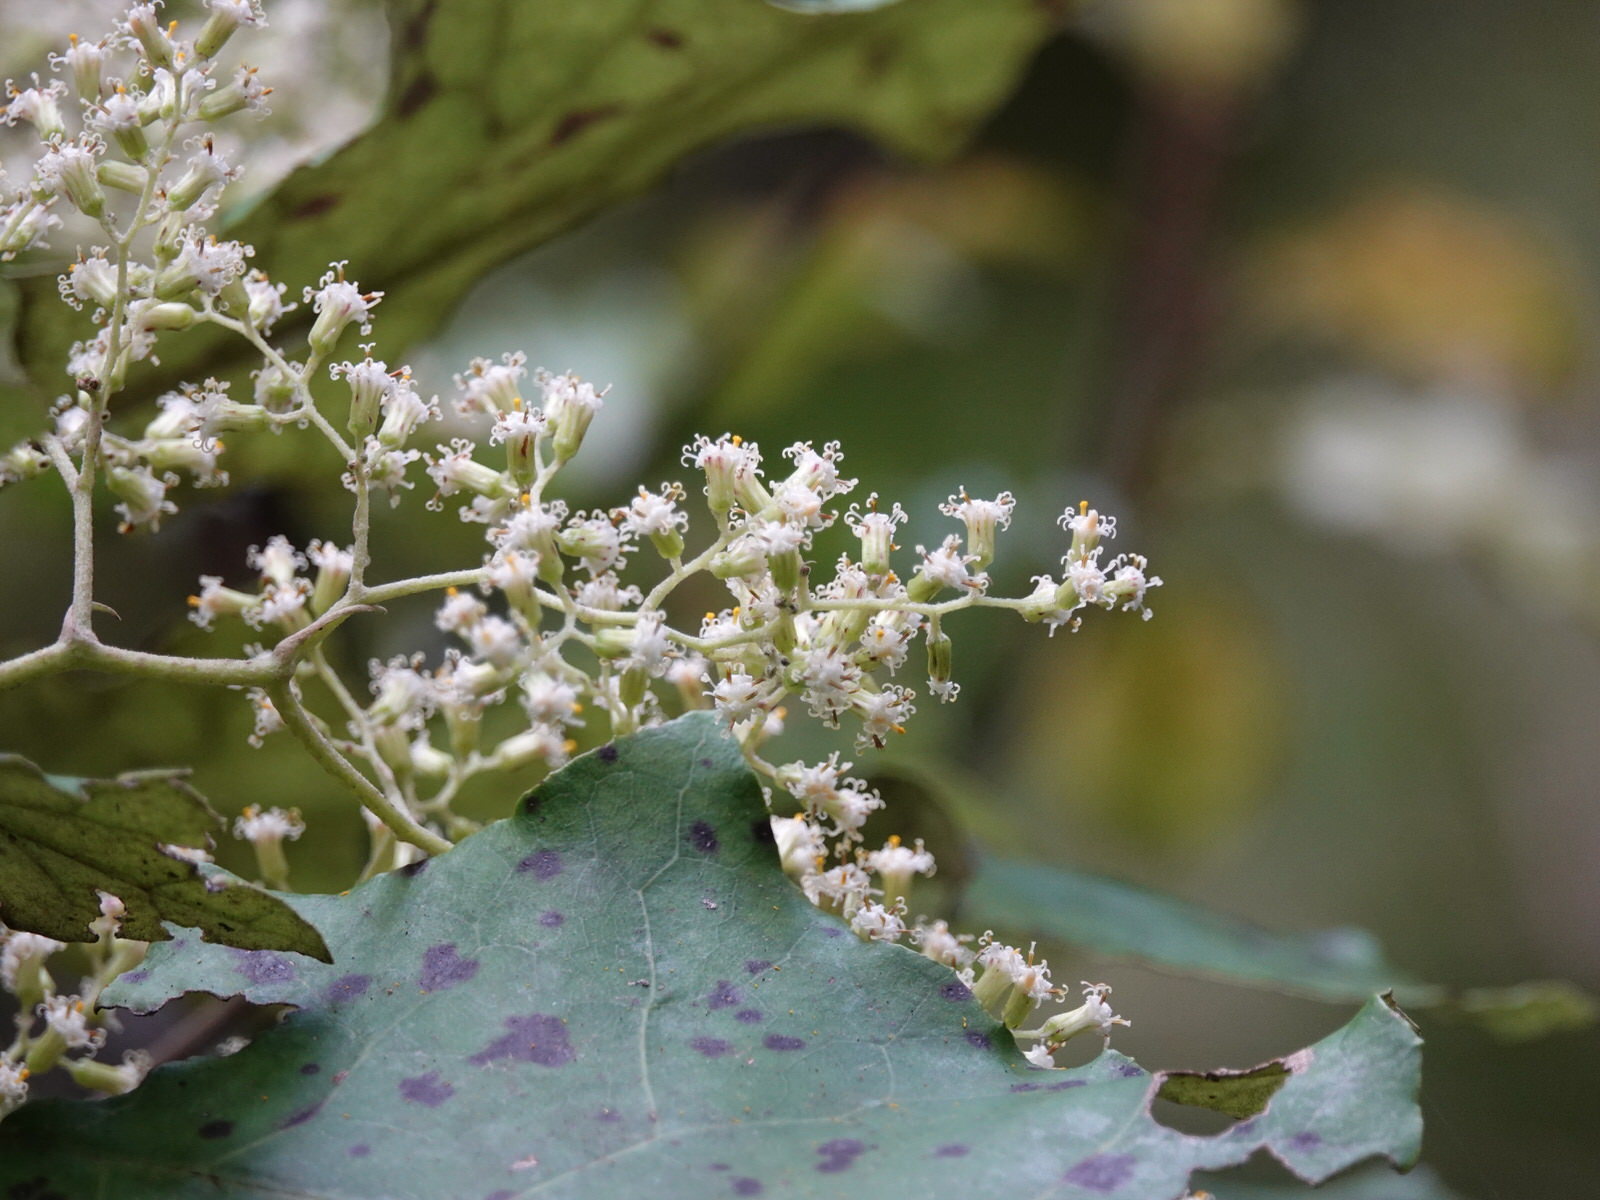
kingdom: Plantae
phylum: Tracheophyta
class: Magnoliopsida
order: Asterales
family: Asteraceae
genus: Brachyglottis
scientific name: Brachyglottis repanda
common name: Hedge ragwort
